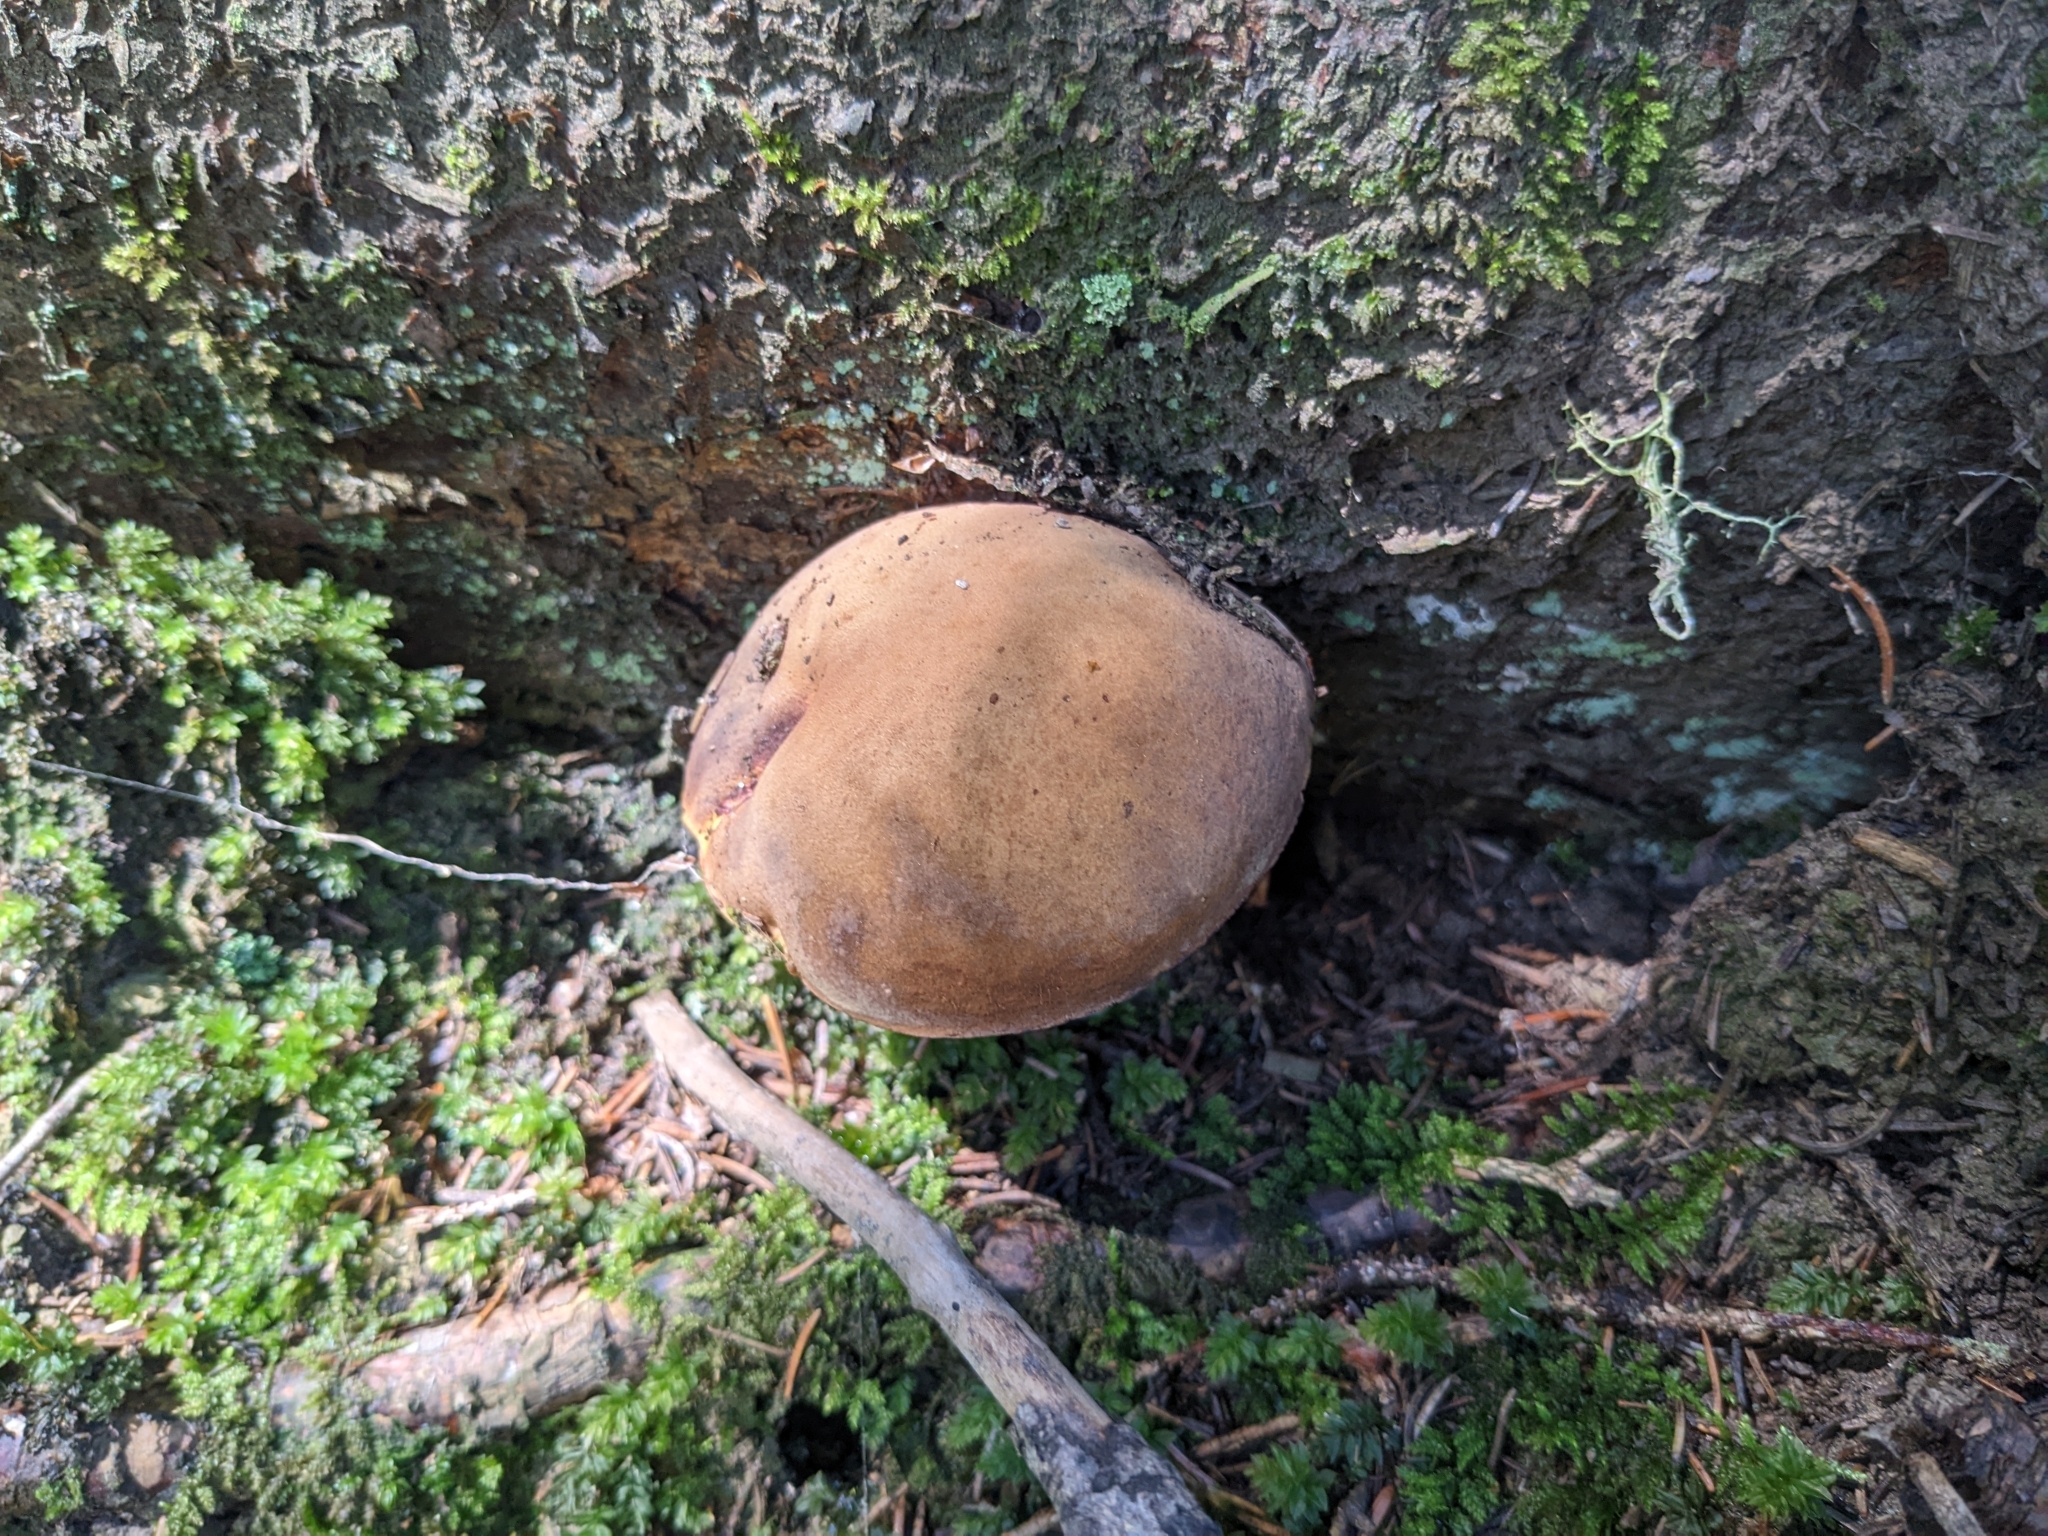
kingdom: Fungi
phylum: Basidiomycota
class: Agaricomycetes
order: Boletales
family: Boletaceae
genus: Neoboletus
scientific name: Neoboletus erythropus
